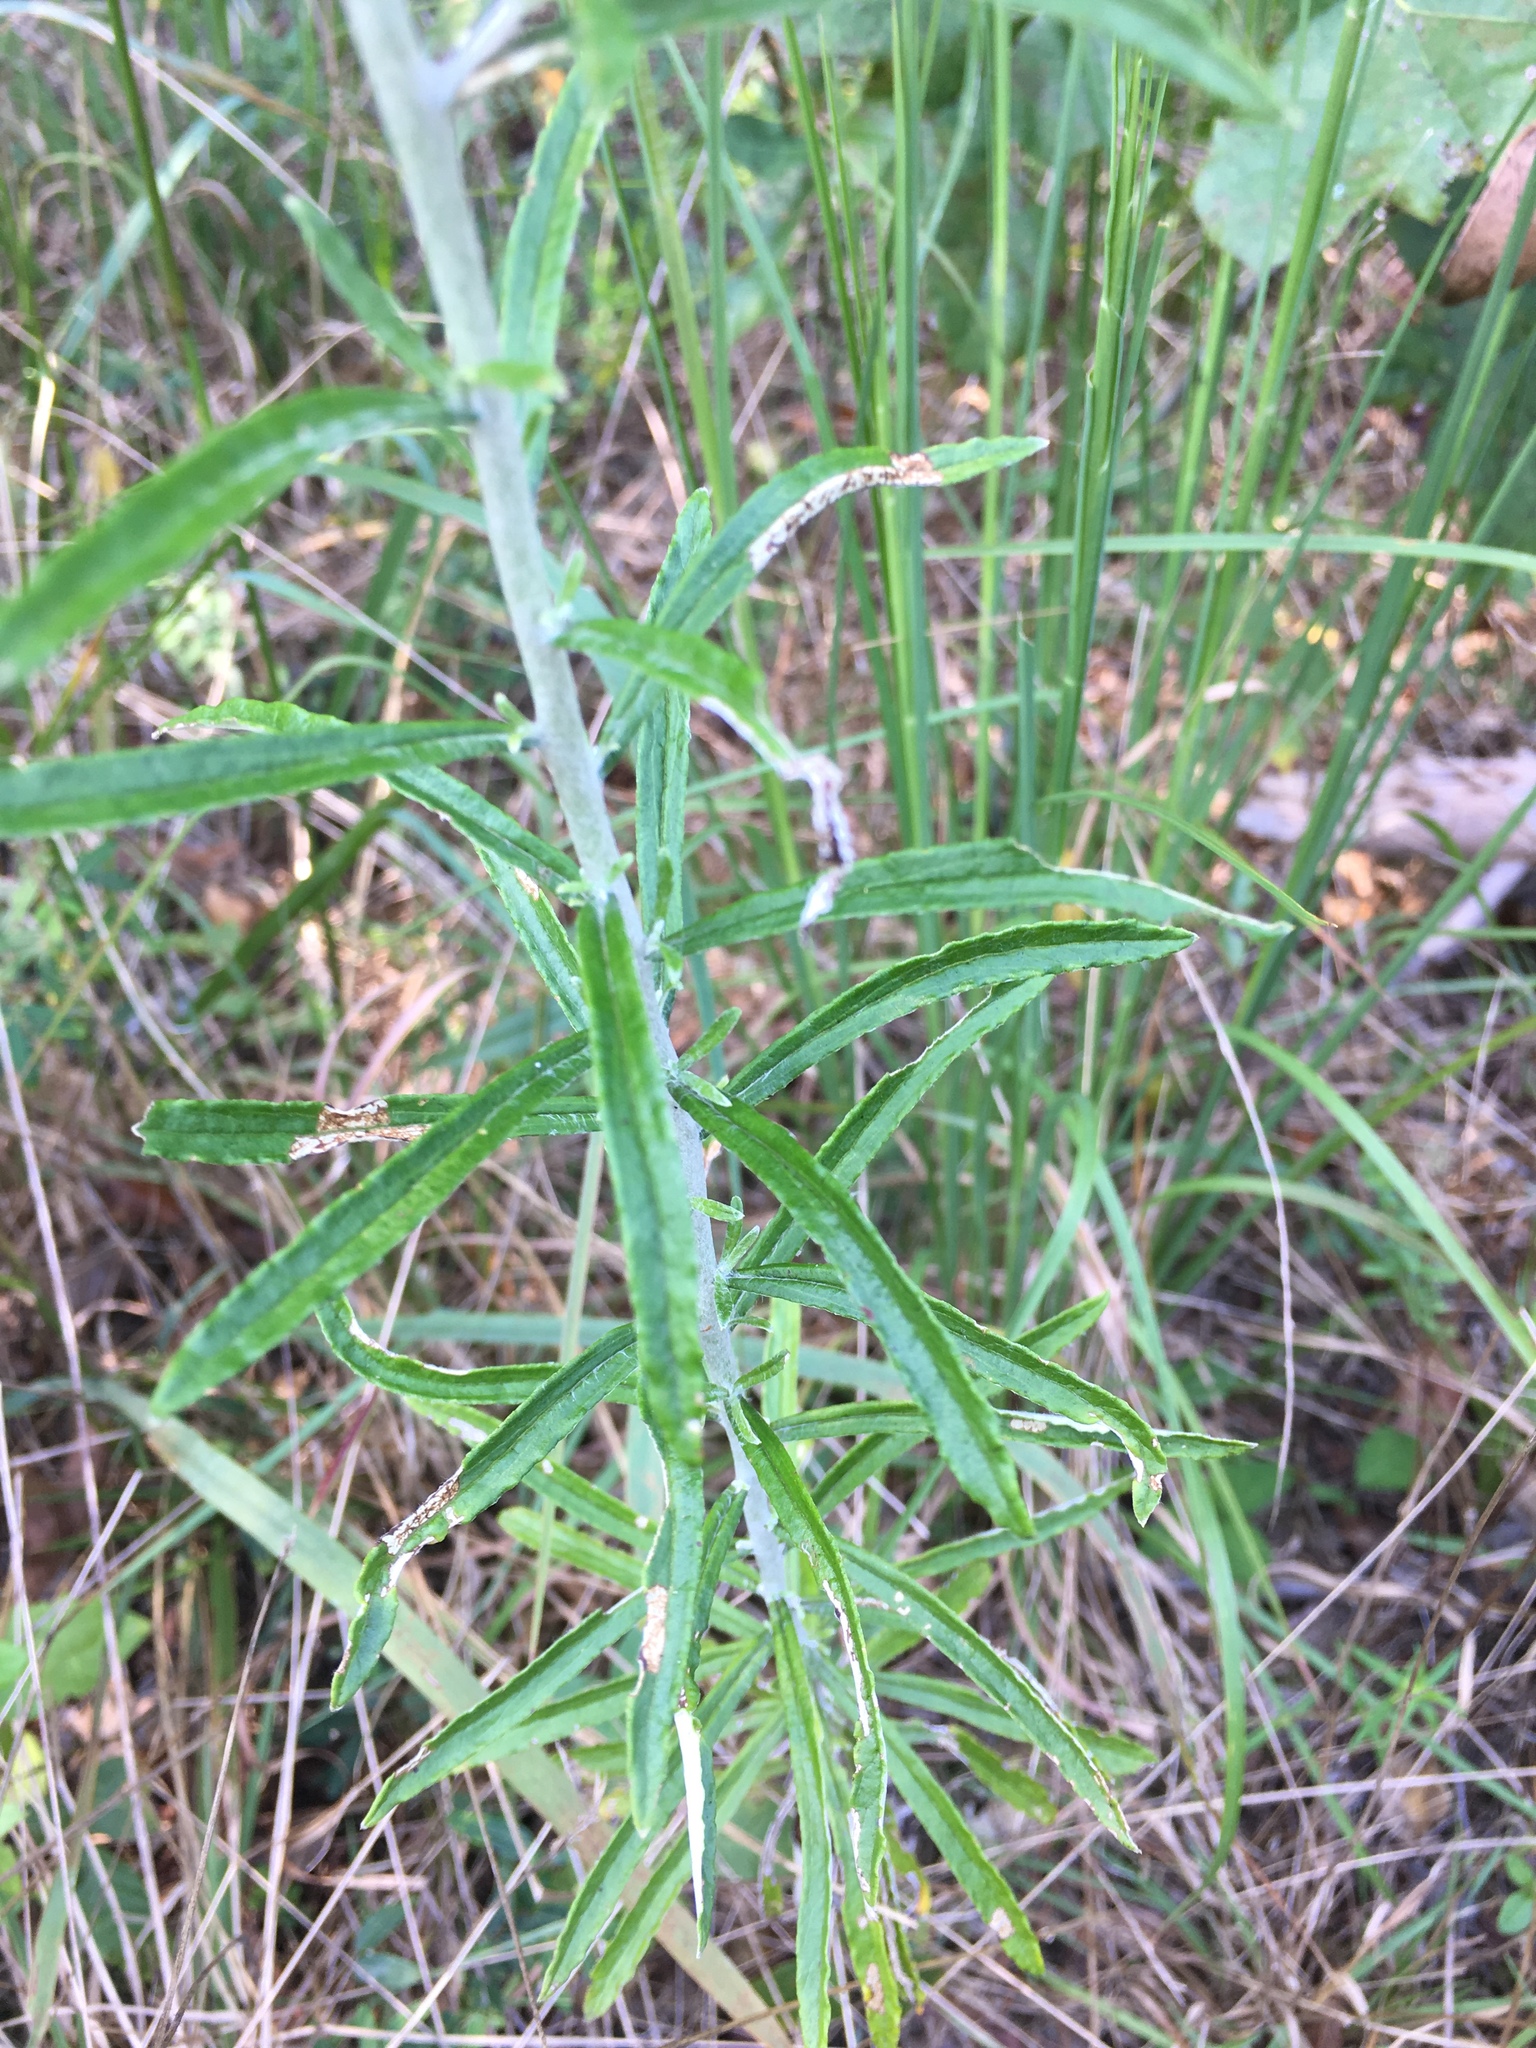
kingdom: Plantae
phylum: Tracheophyta
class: Magnoliopsida
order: Asterales
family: Asteraceae
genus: Pseudognaphalium
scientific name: Pseudognaphalium obtusifolium
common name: Eastern rabbit-tobacco
